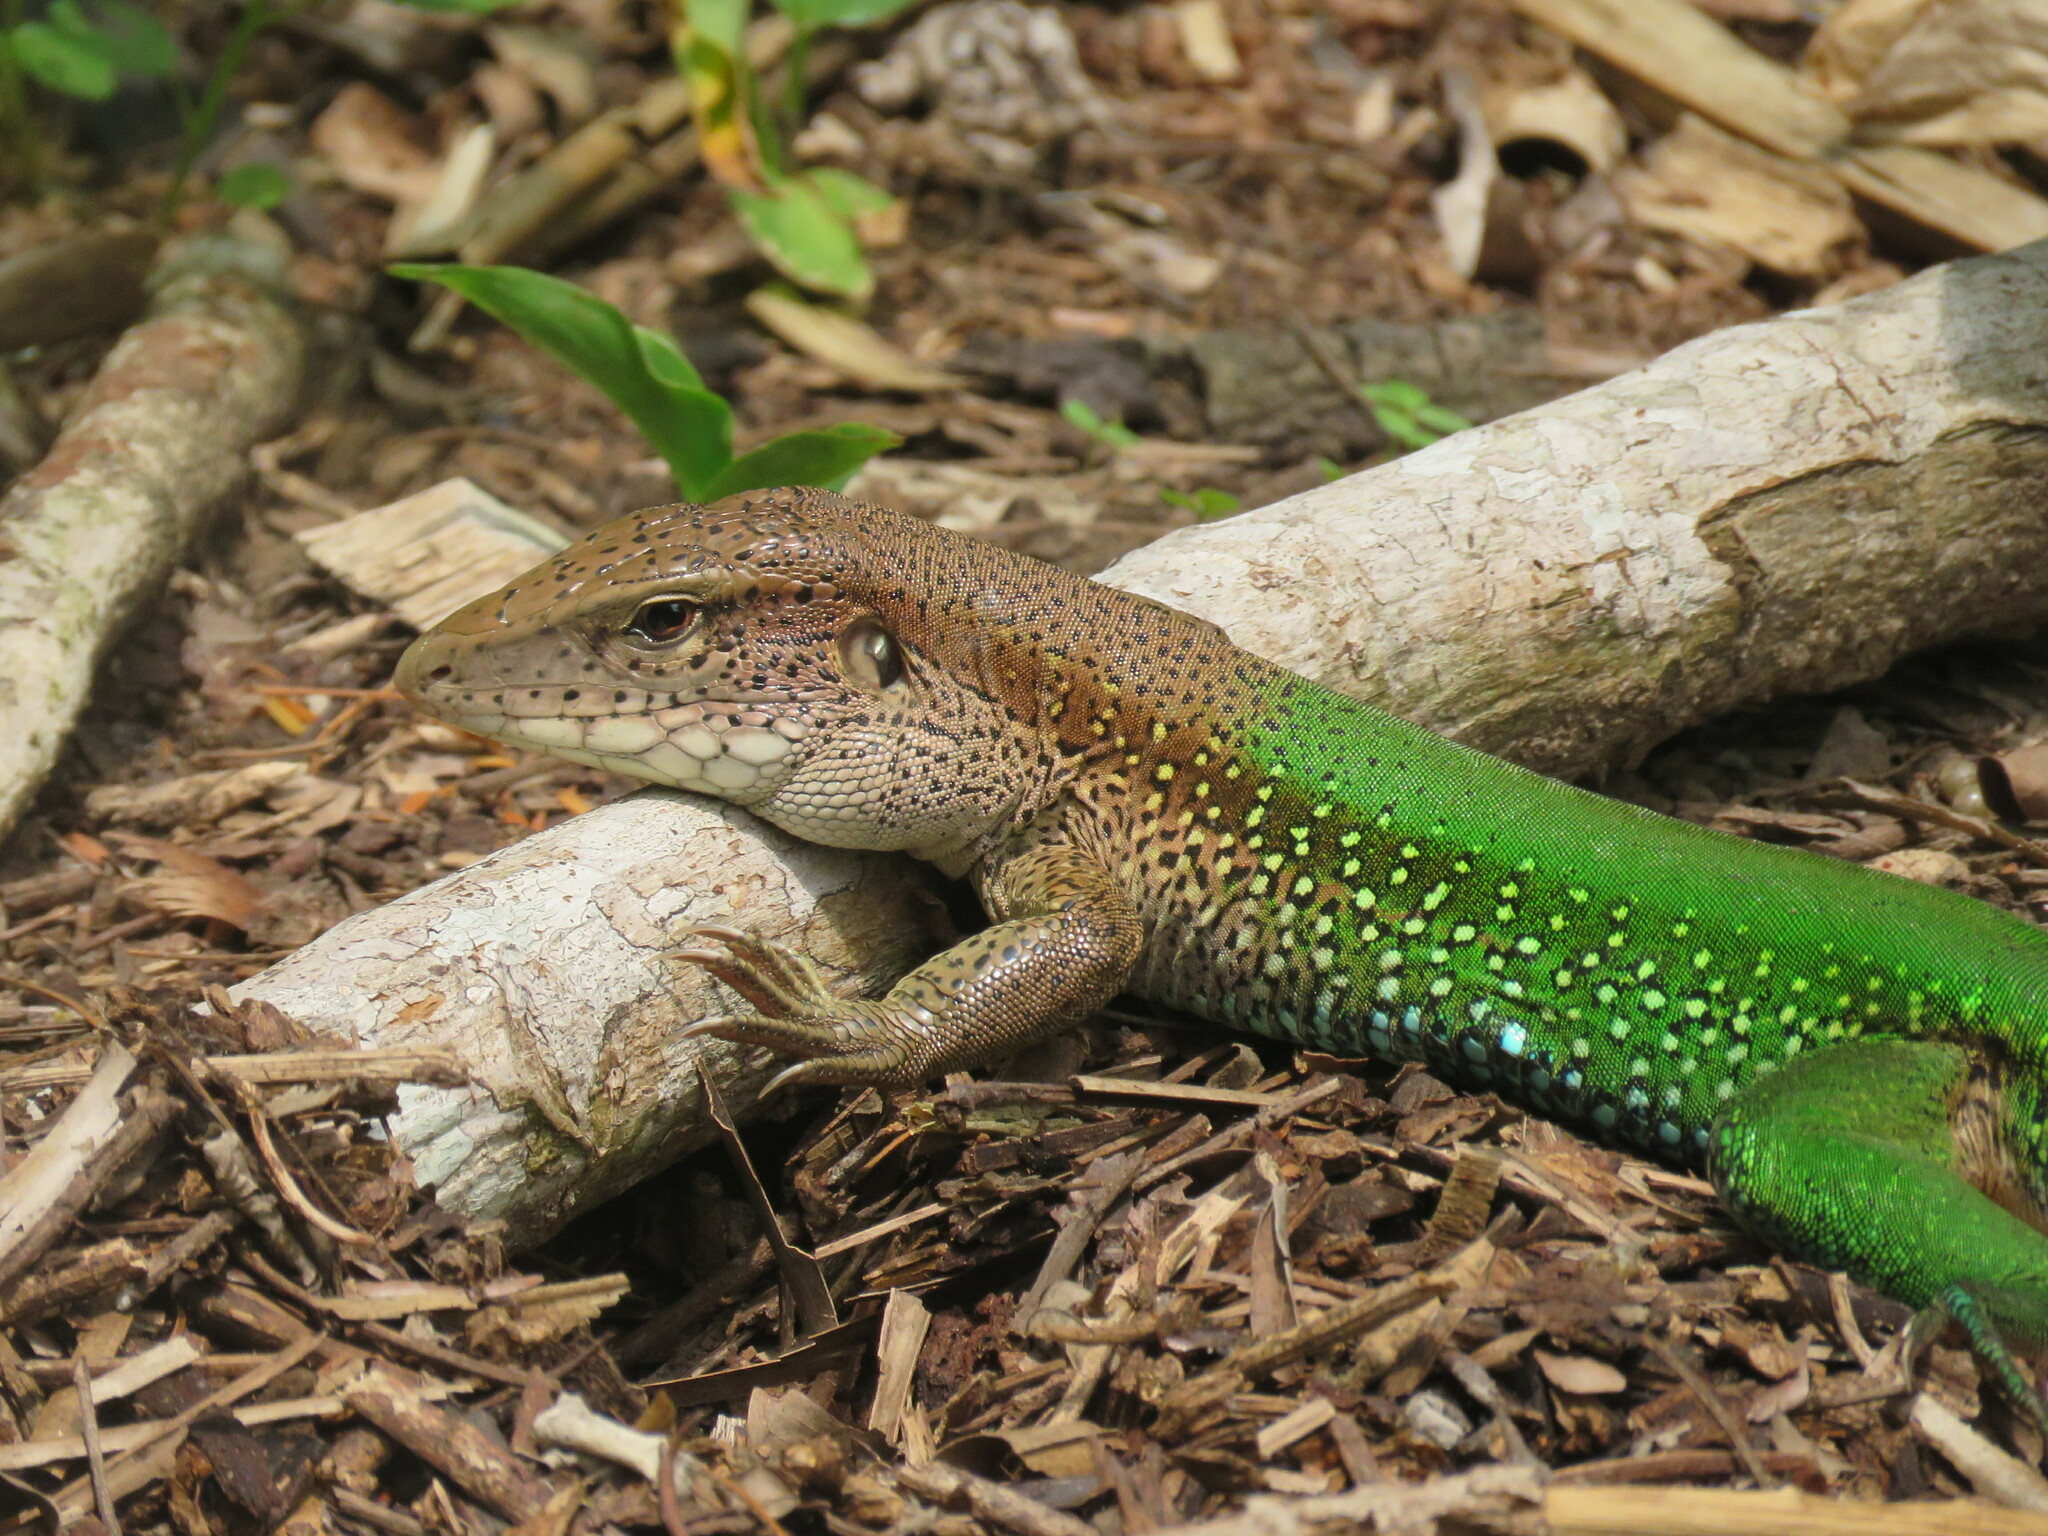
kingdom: Animalia
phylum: Chordata
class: Squamata
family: Teiidae
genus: Ameiva
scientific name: Ameiva ameiva
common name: Giant ameiva
